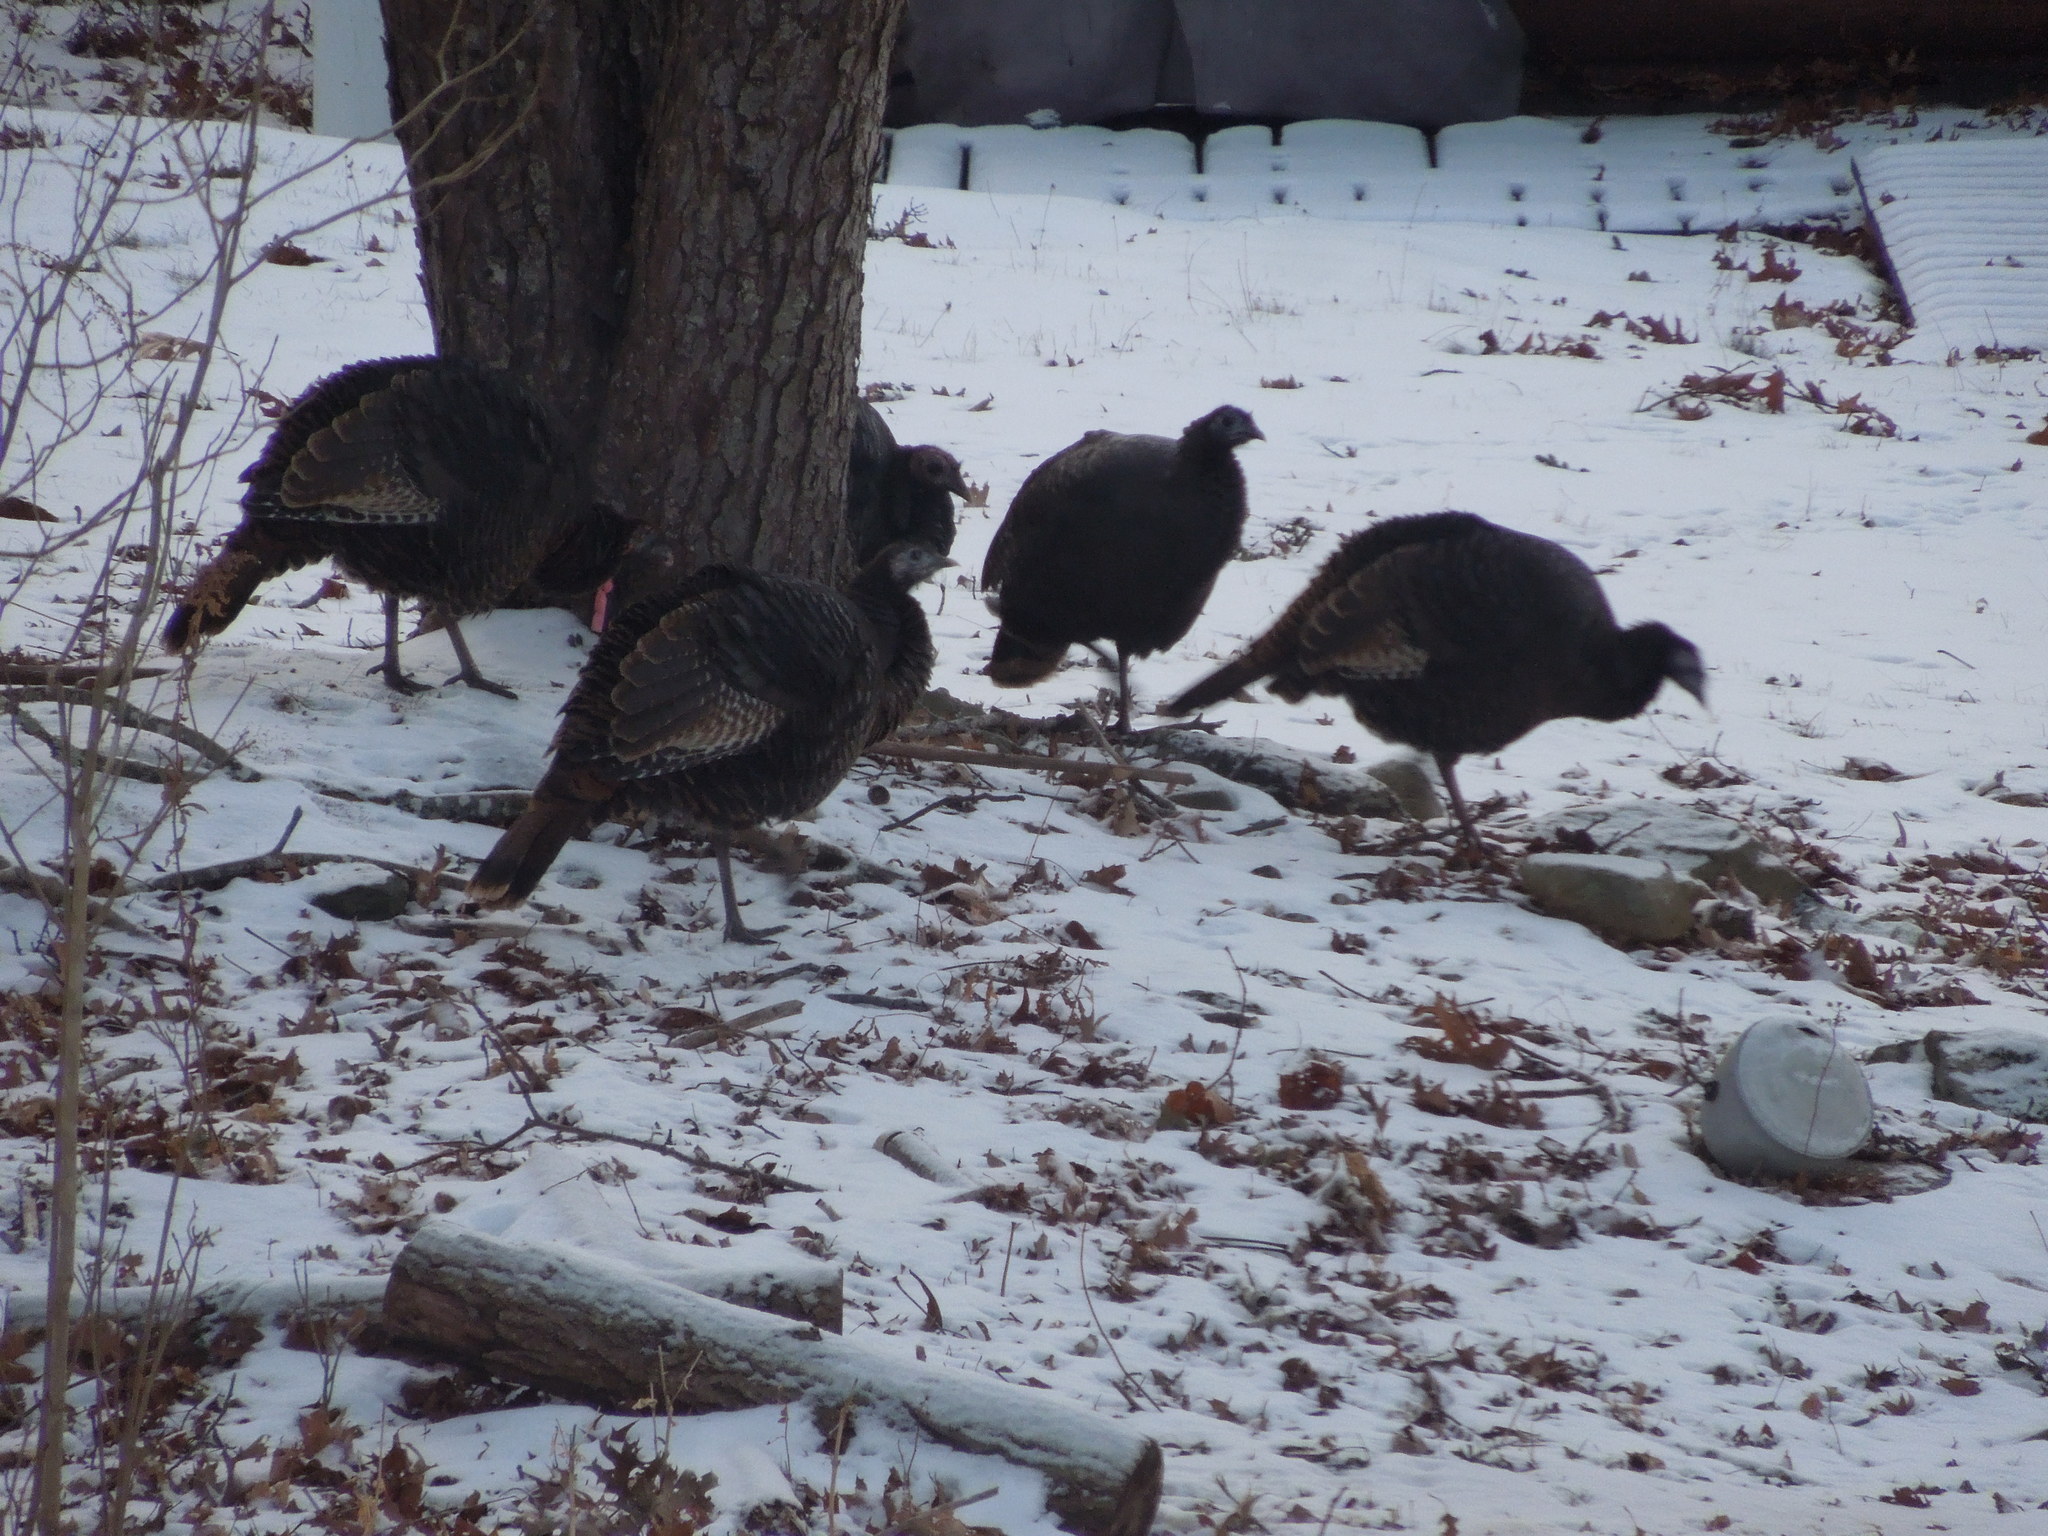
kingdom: Animalia
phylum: Chordata
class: Aves
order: Galliformes
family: Phasianidae
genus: Meleagris
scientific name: Meleagris gallopavo
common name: Wild turkey
